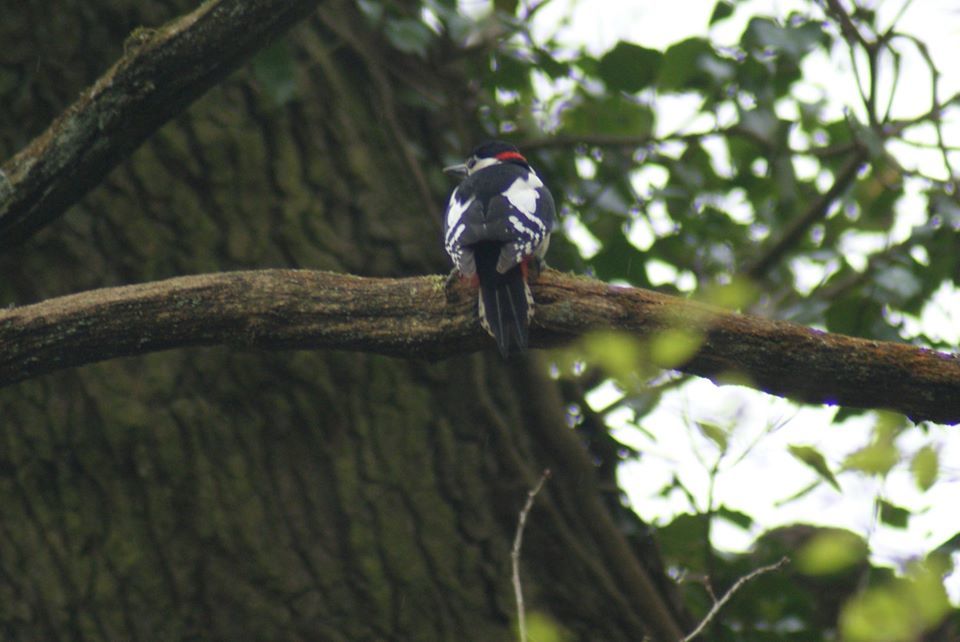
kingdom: Animalia
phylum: Chordata
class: Aves
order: Piciformes
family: Picidae
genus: Dendrocopos
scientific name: Dendrocopos major
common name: Great spotted woodpecker
